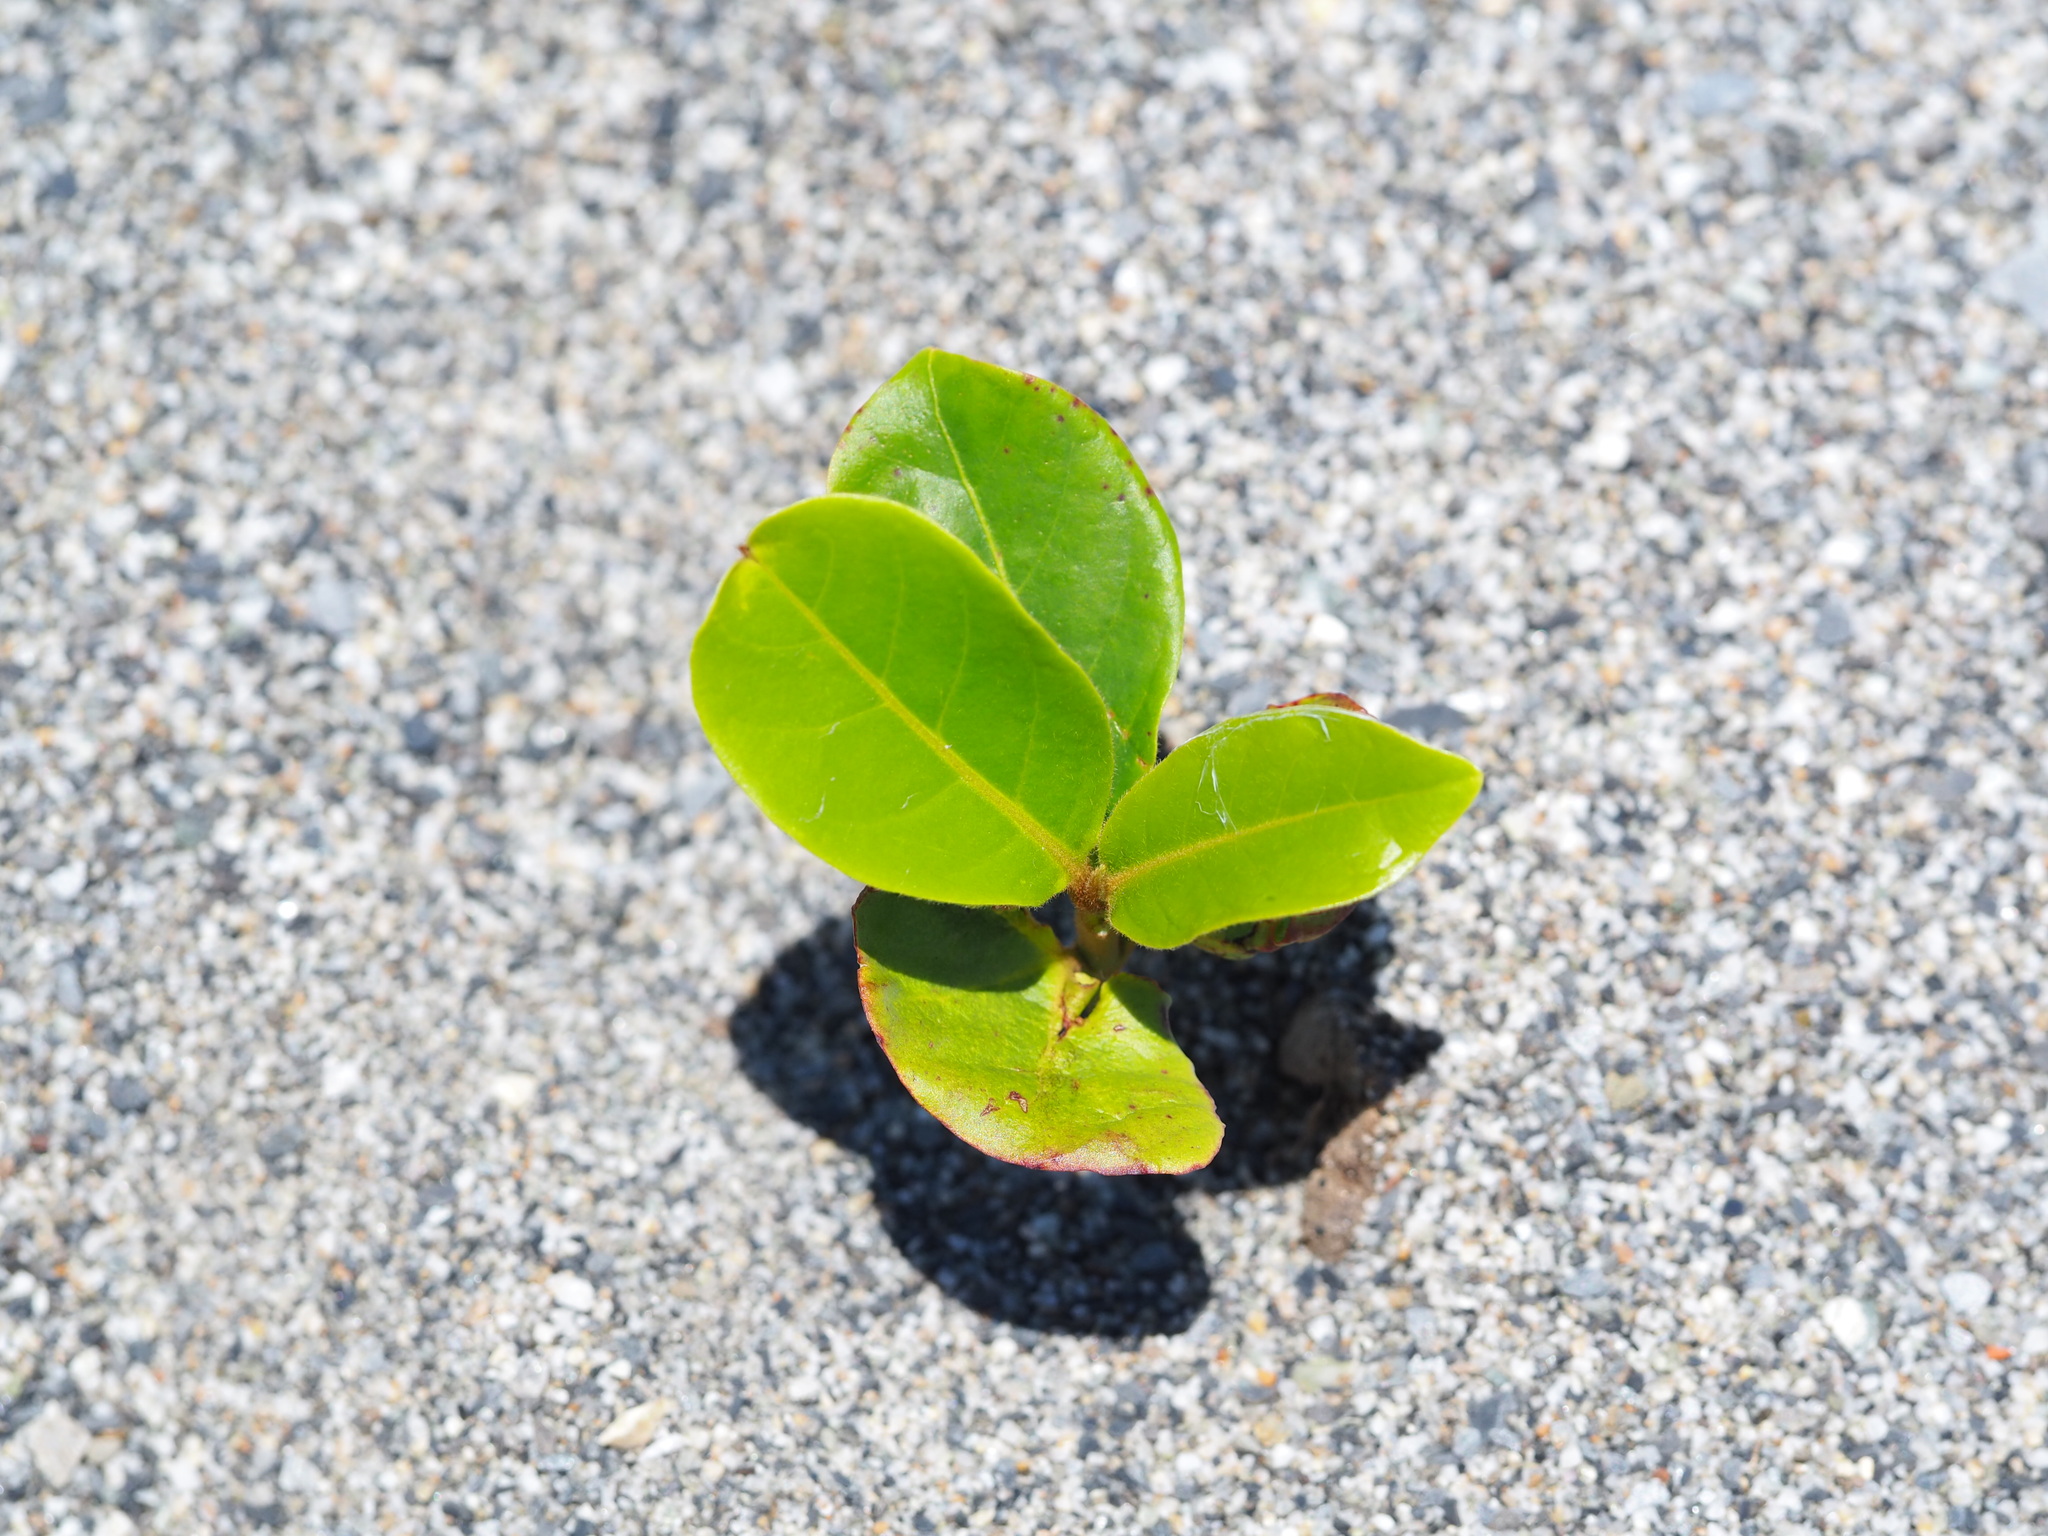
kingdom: Plantae
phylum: Tracheophyta
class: Magnoliopsida
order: Myrtales
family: Combretaceae
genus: Terminalia
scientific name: Terminalia catappa
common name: Tropical almond
